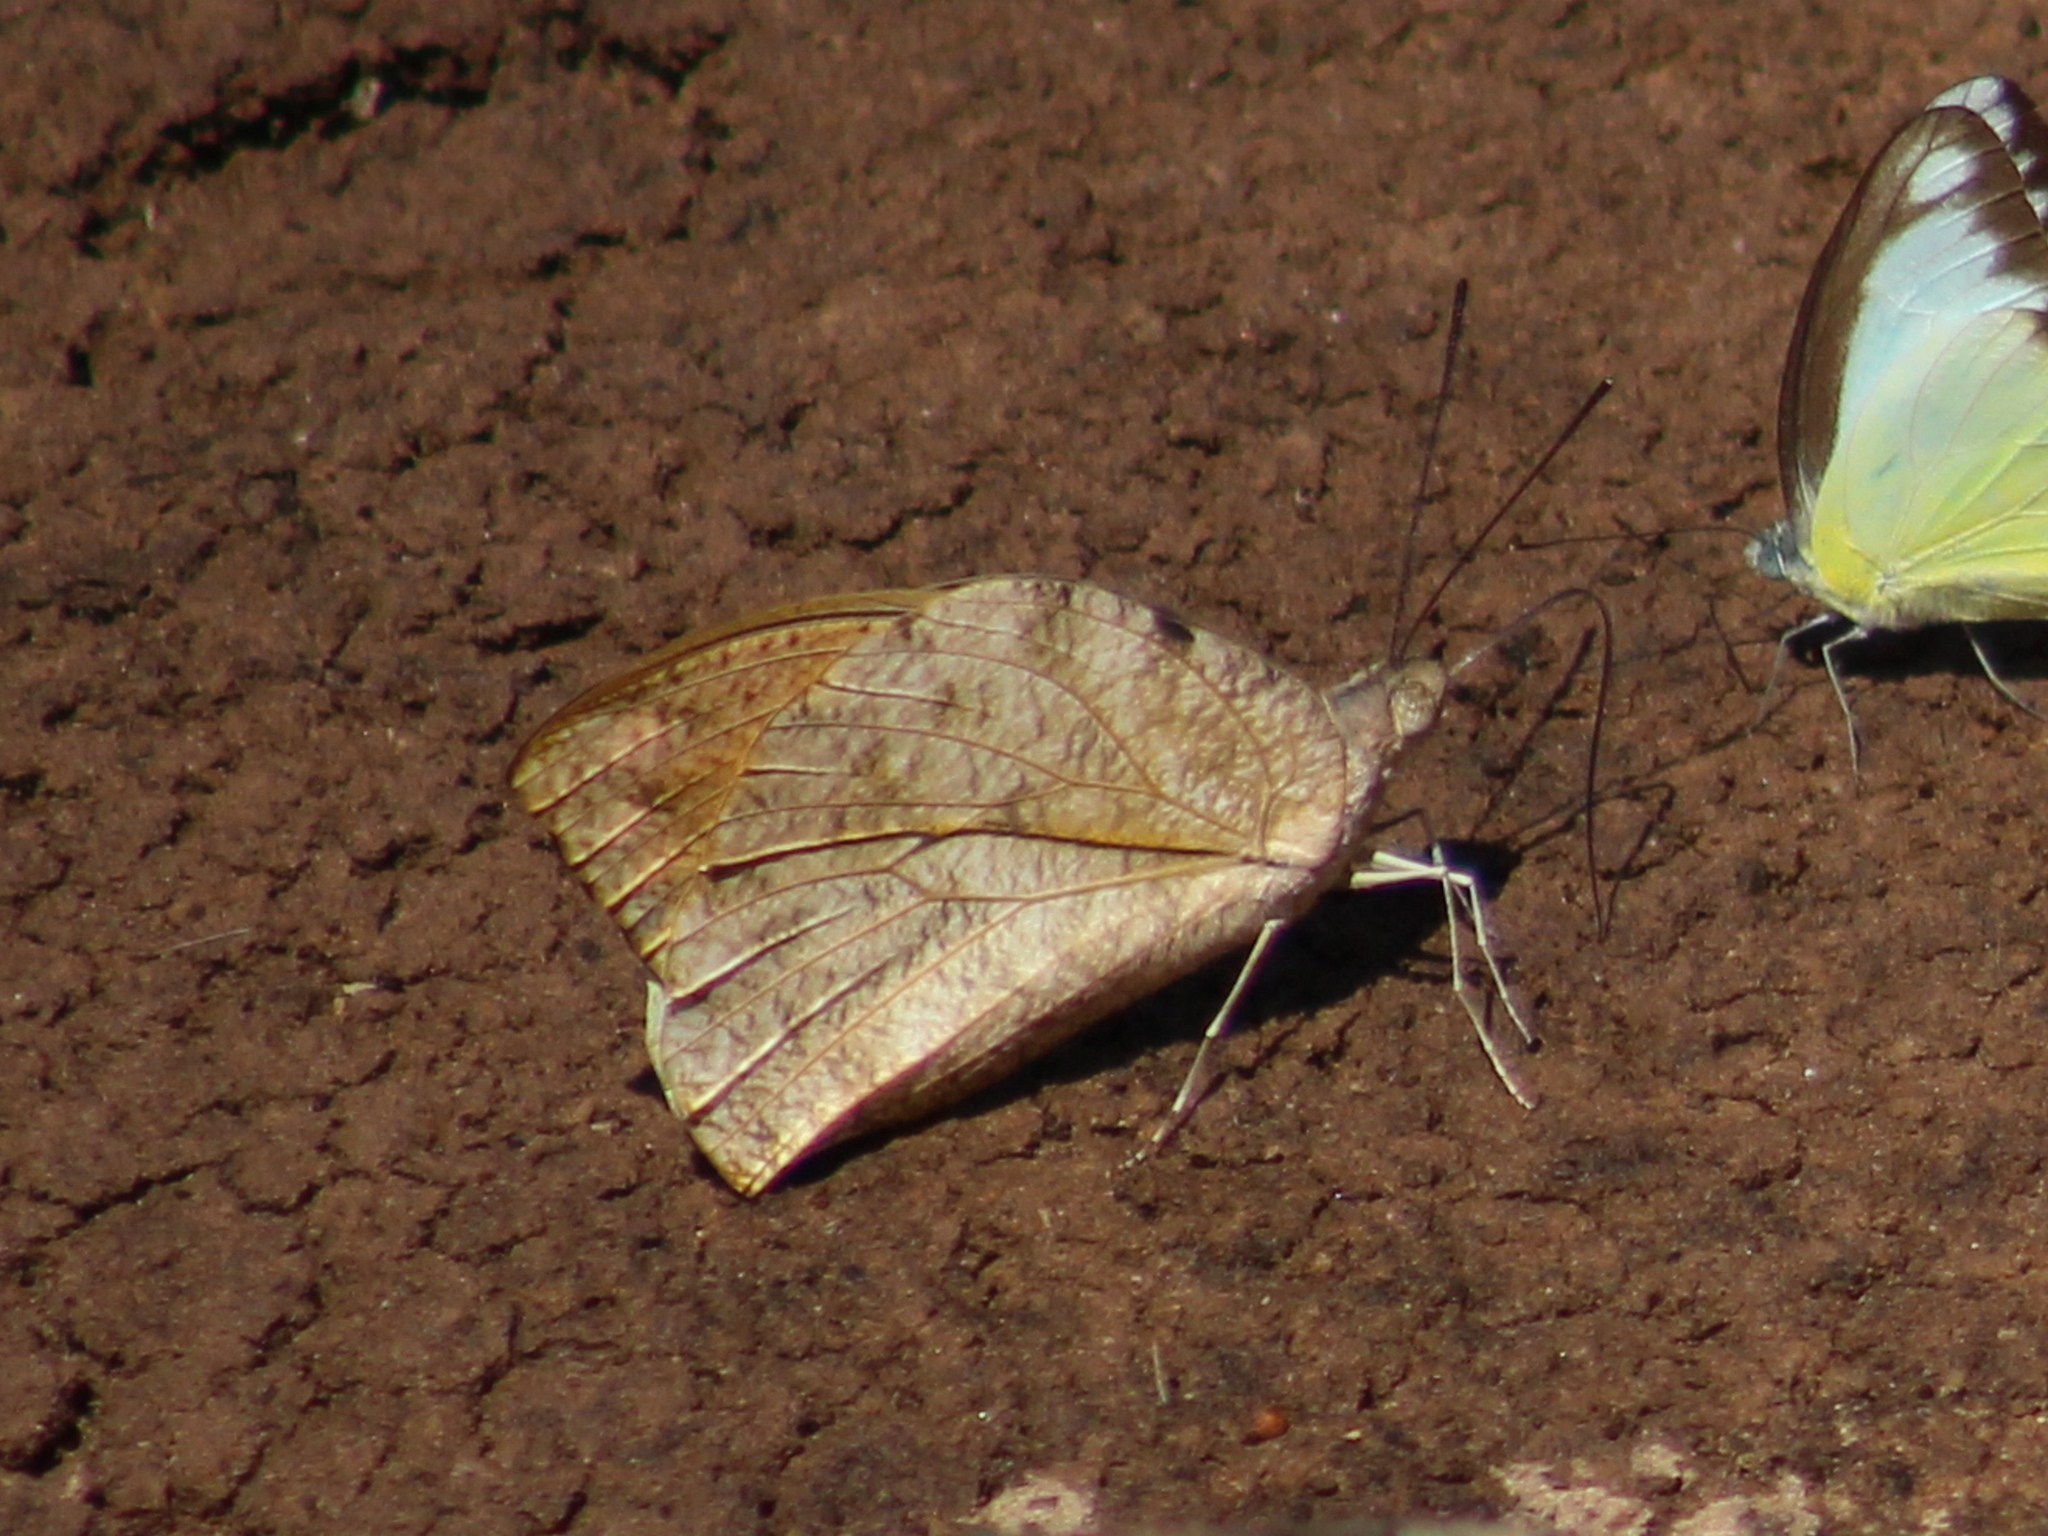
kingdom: Animalia
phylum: Arthropoda
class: Insecta
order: Lepidoptera
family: Pieridae
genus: Hebomoia
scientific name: Hebomoia glaucippe
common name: Great orange tip
